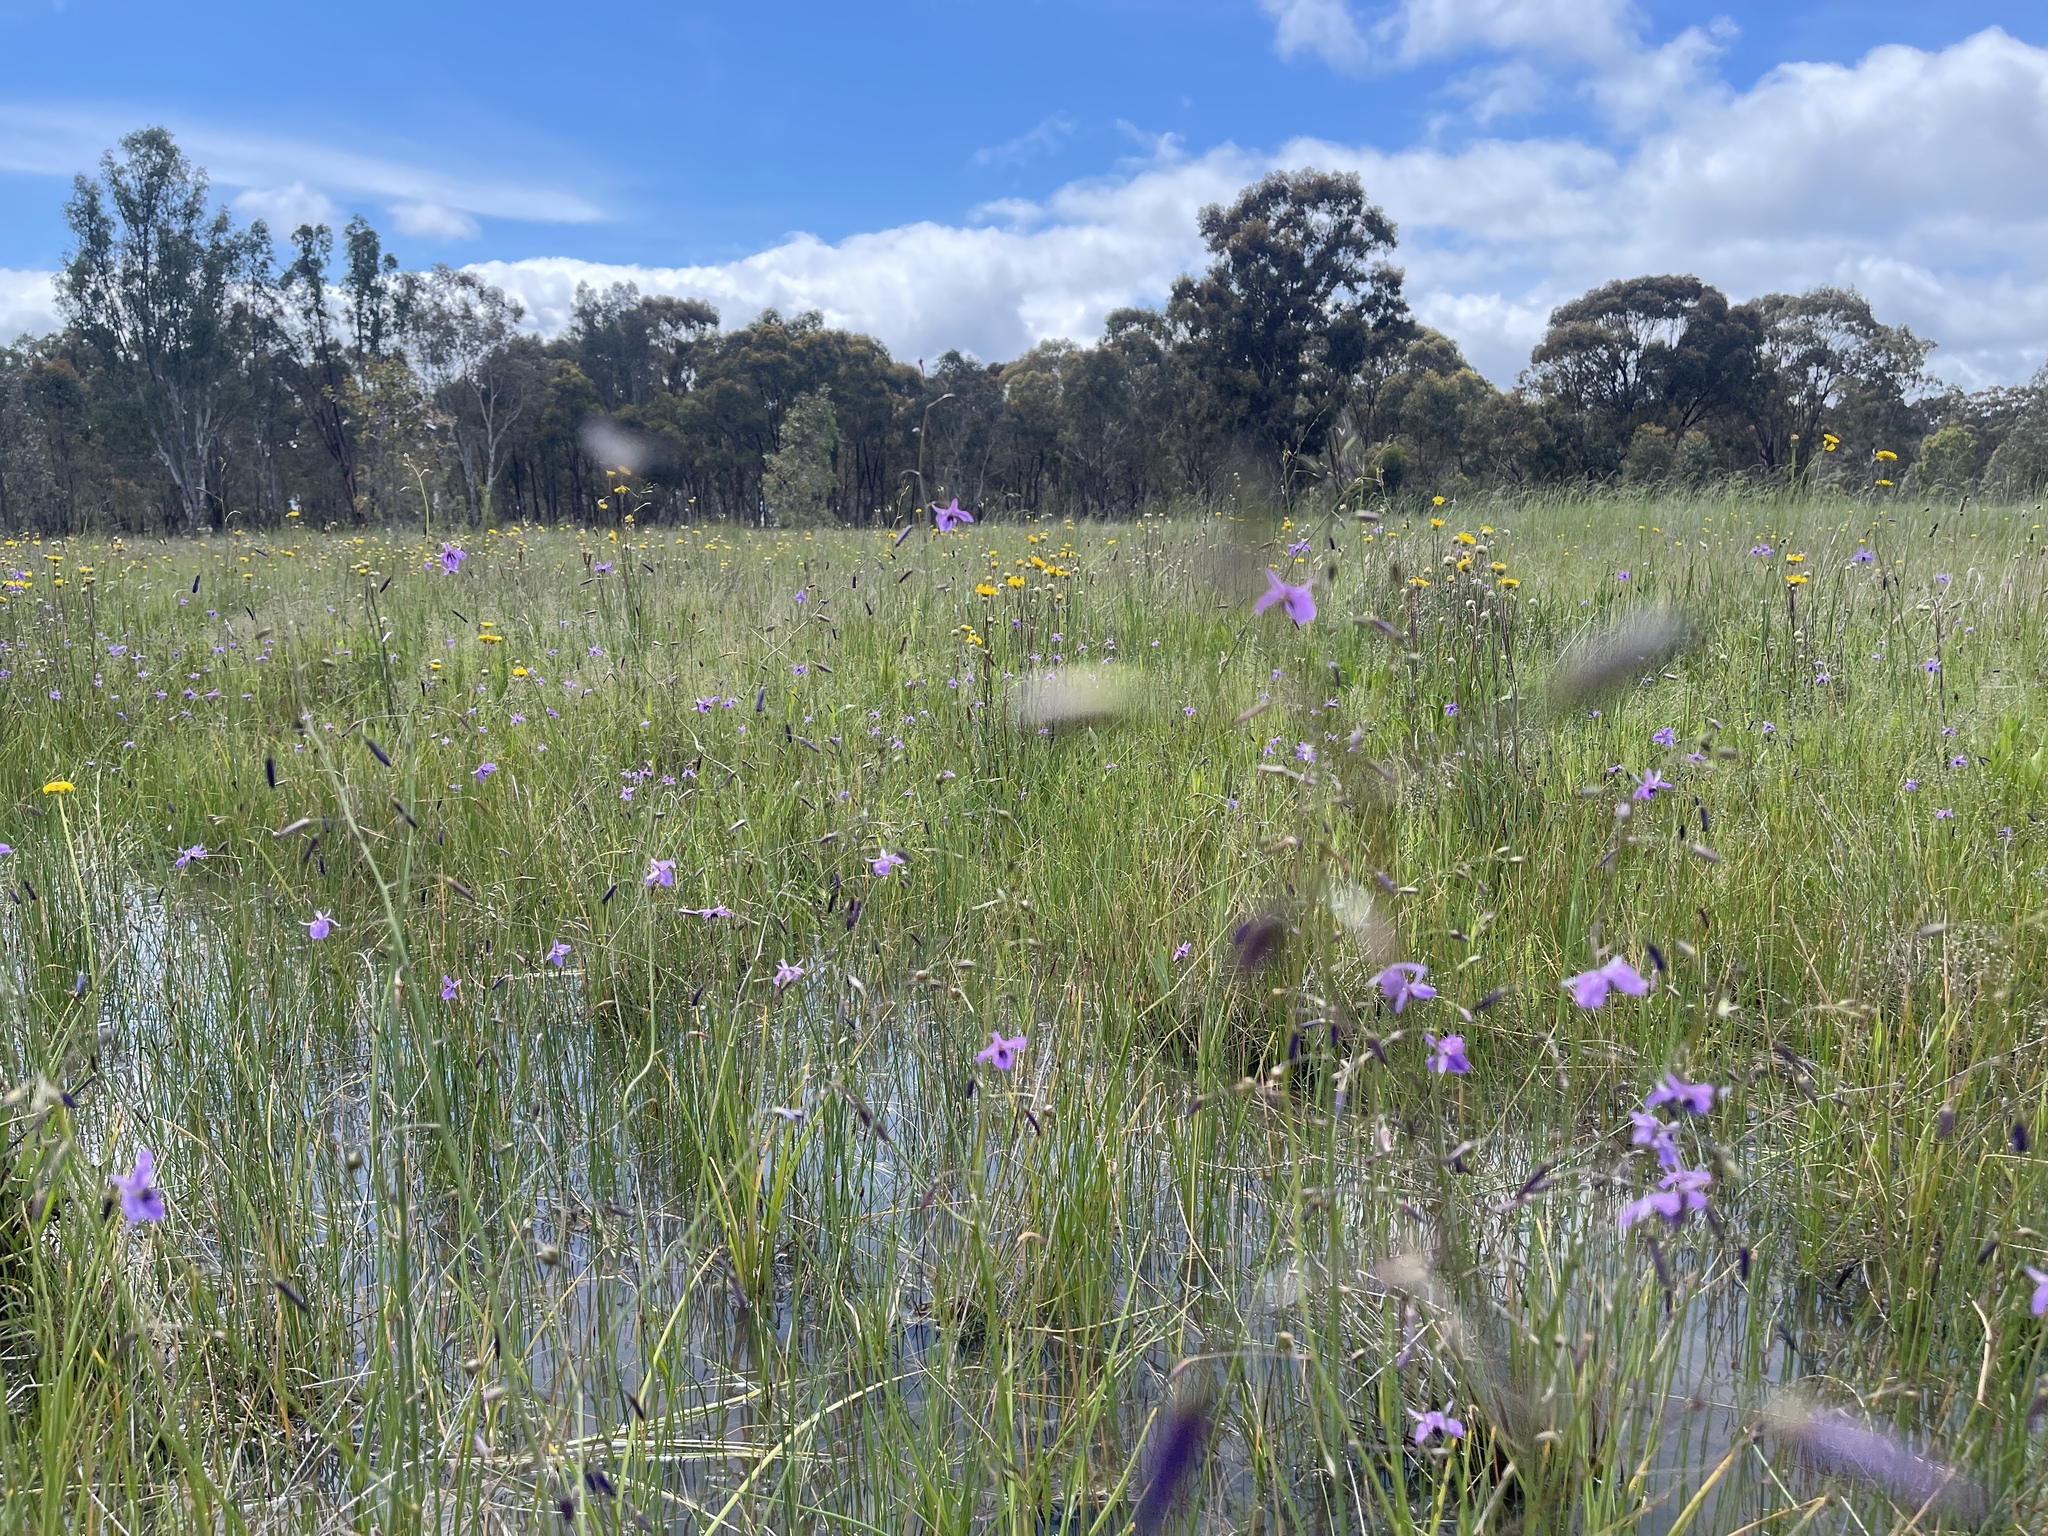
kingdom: Plantae
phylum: Tracheophyta
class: Liliopsida
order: Asparagales
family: Asparagaceae
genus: Arthropodium
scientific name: Arthropodium strictum
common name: Chocolate-lily
